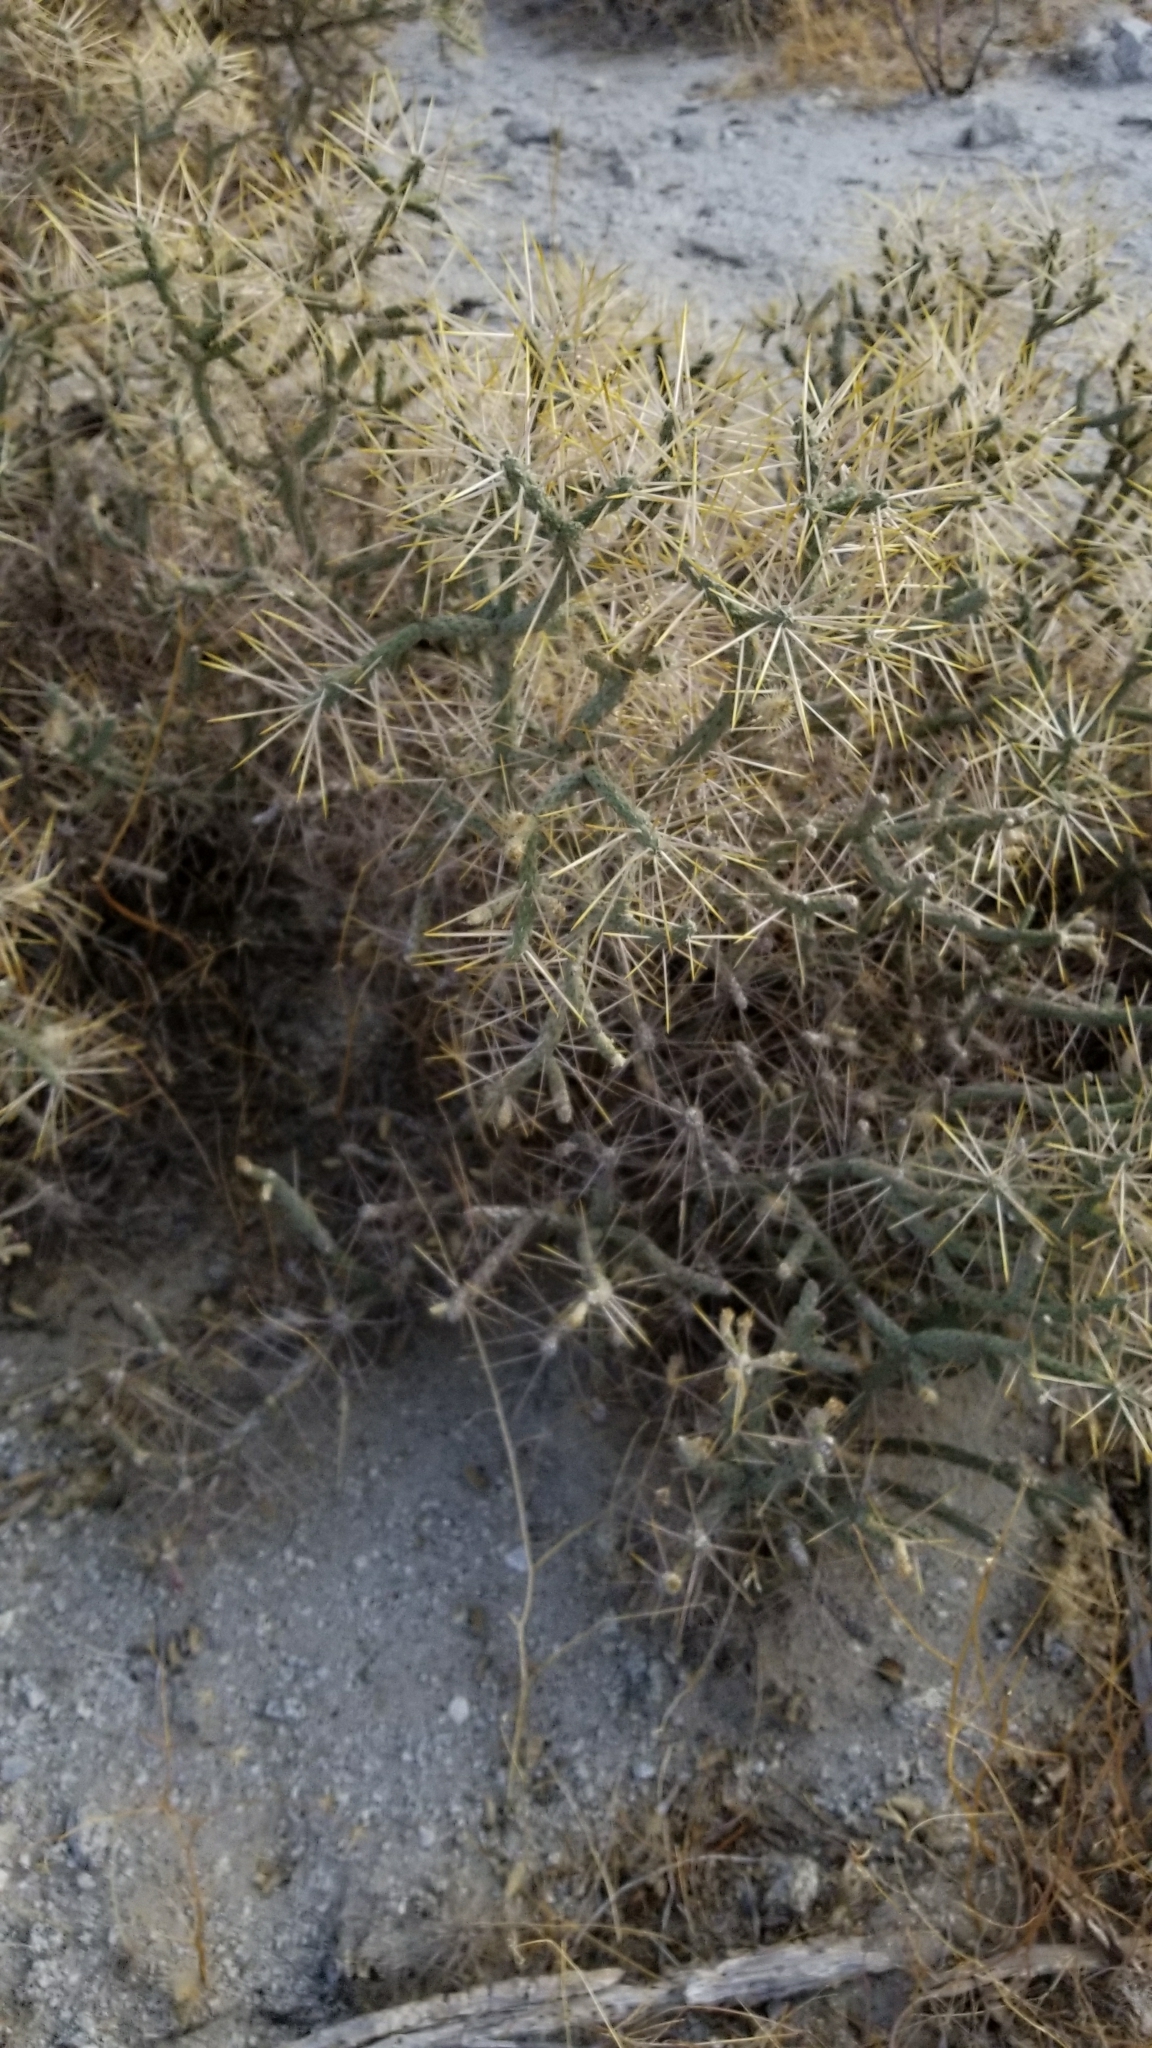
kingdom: Plantae
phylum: Tracheophyta
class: Magnoliopsida
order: Caryophyllales
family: Cactaceae
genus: Cylindropuntia
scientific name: Cylindropuntia ramosissima
